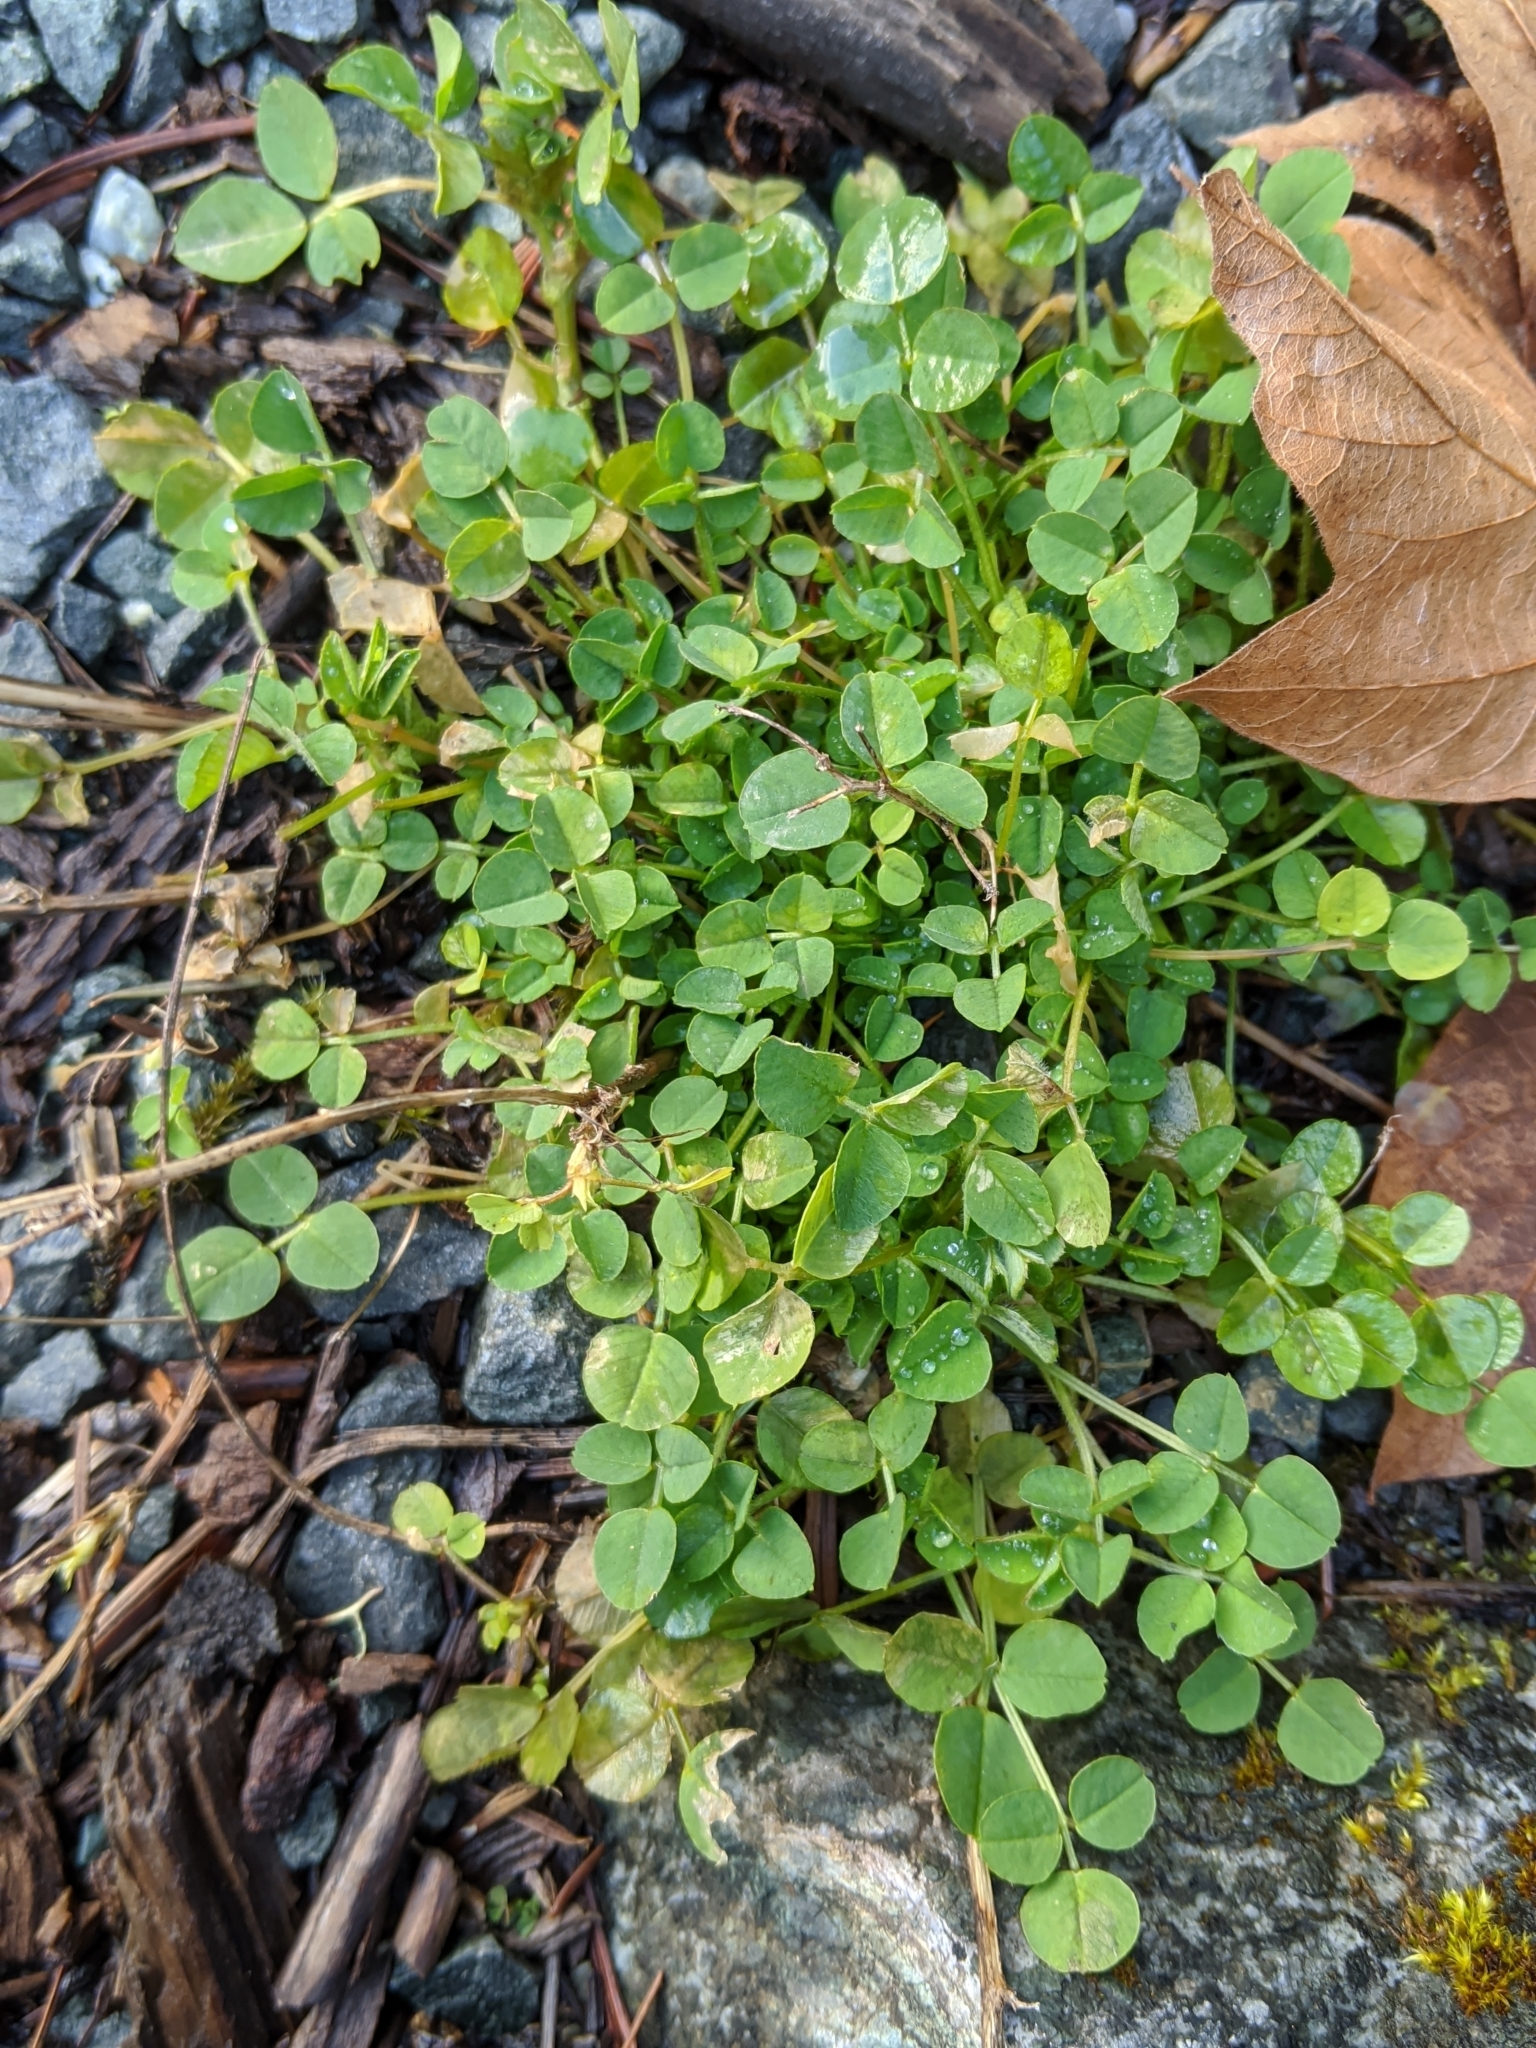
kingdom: Plantae
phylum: Tracheophyta
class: Magnoliopsida
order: Fabales
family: Fabaceae
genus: Medicago
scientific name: Medicago lupulina
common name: Black medick
